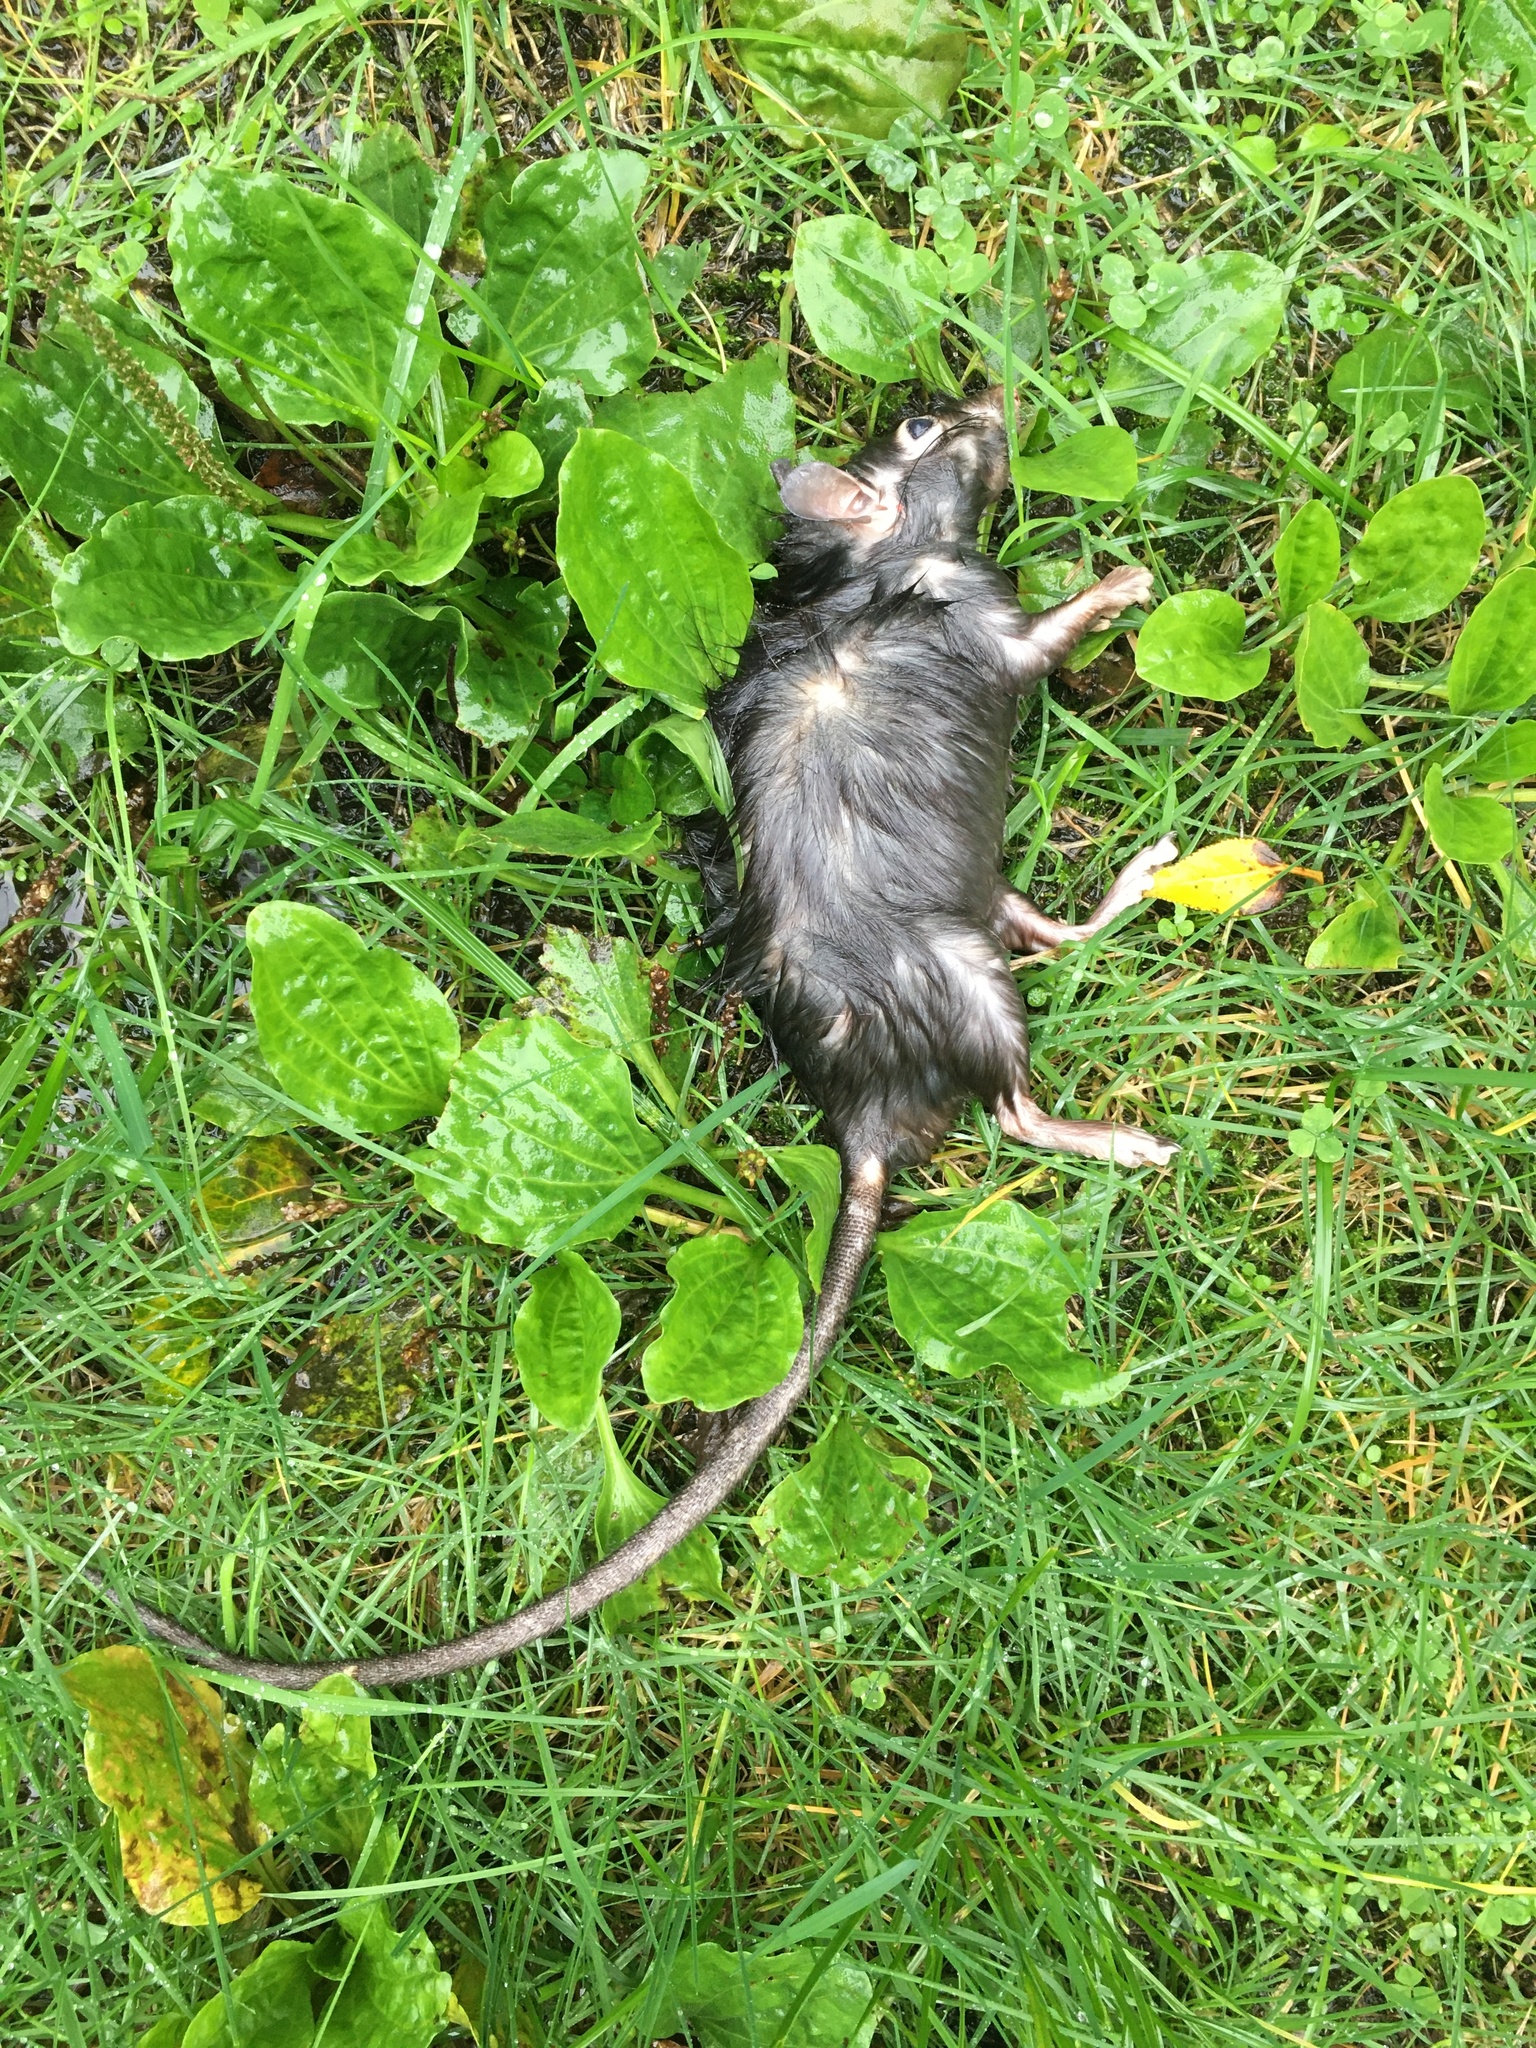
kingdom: Animalia
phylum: Chordata
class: Mammalia
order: Rodentia
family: Muridae
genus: Rattus
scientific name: Rattus rattus
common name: Black rat
